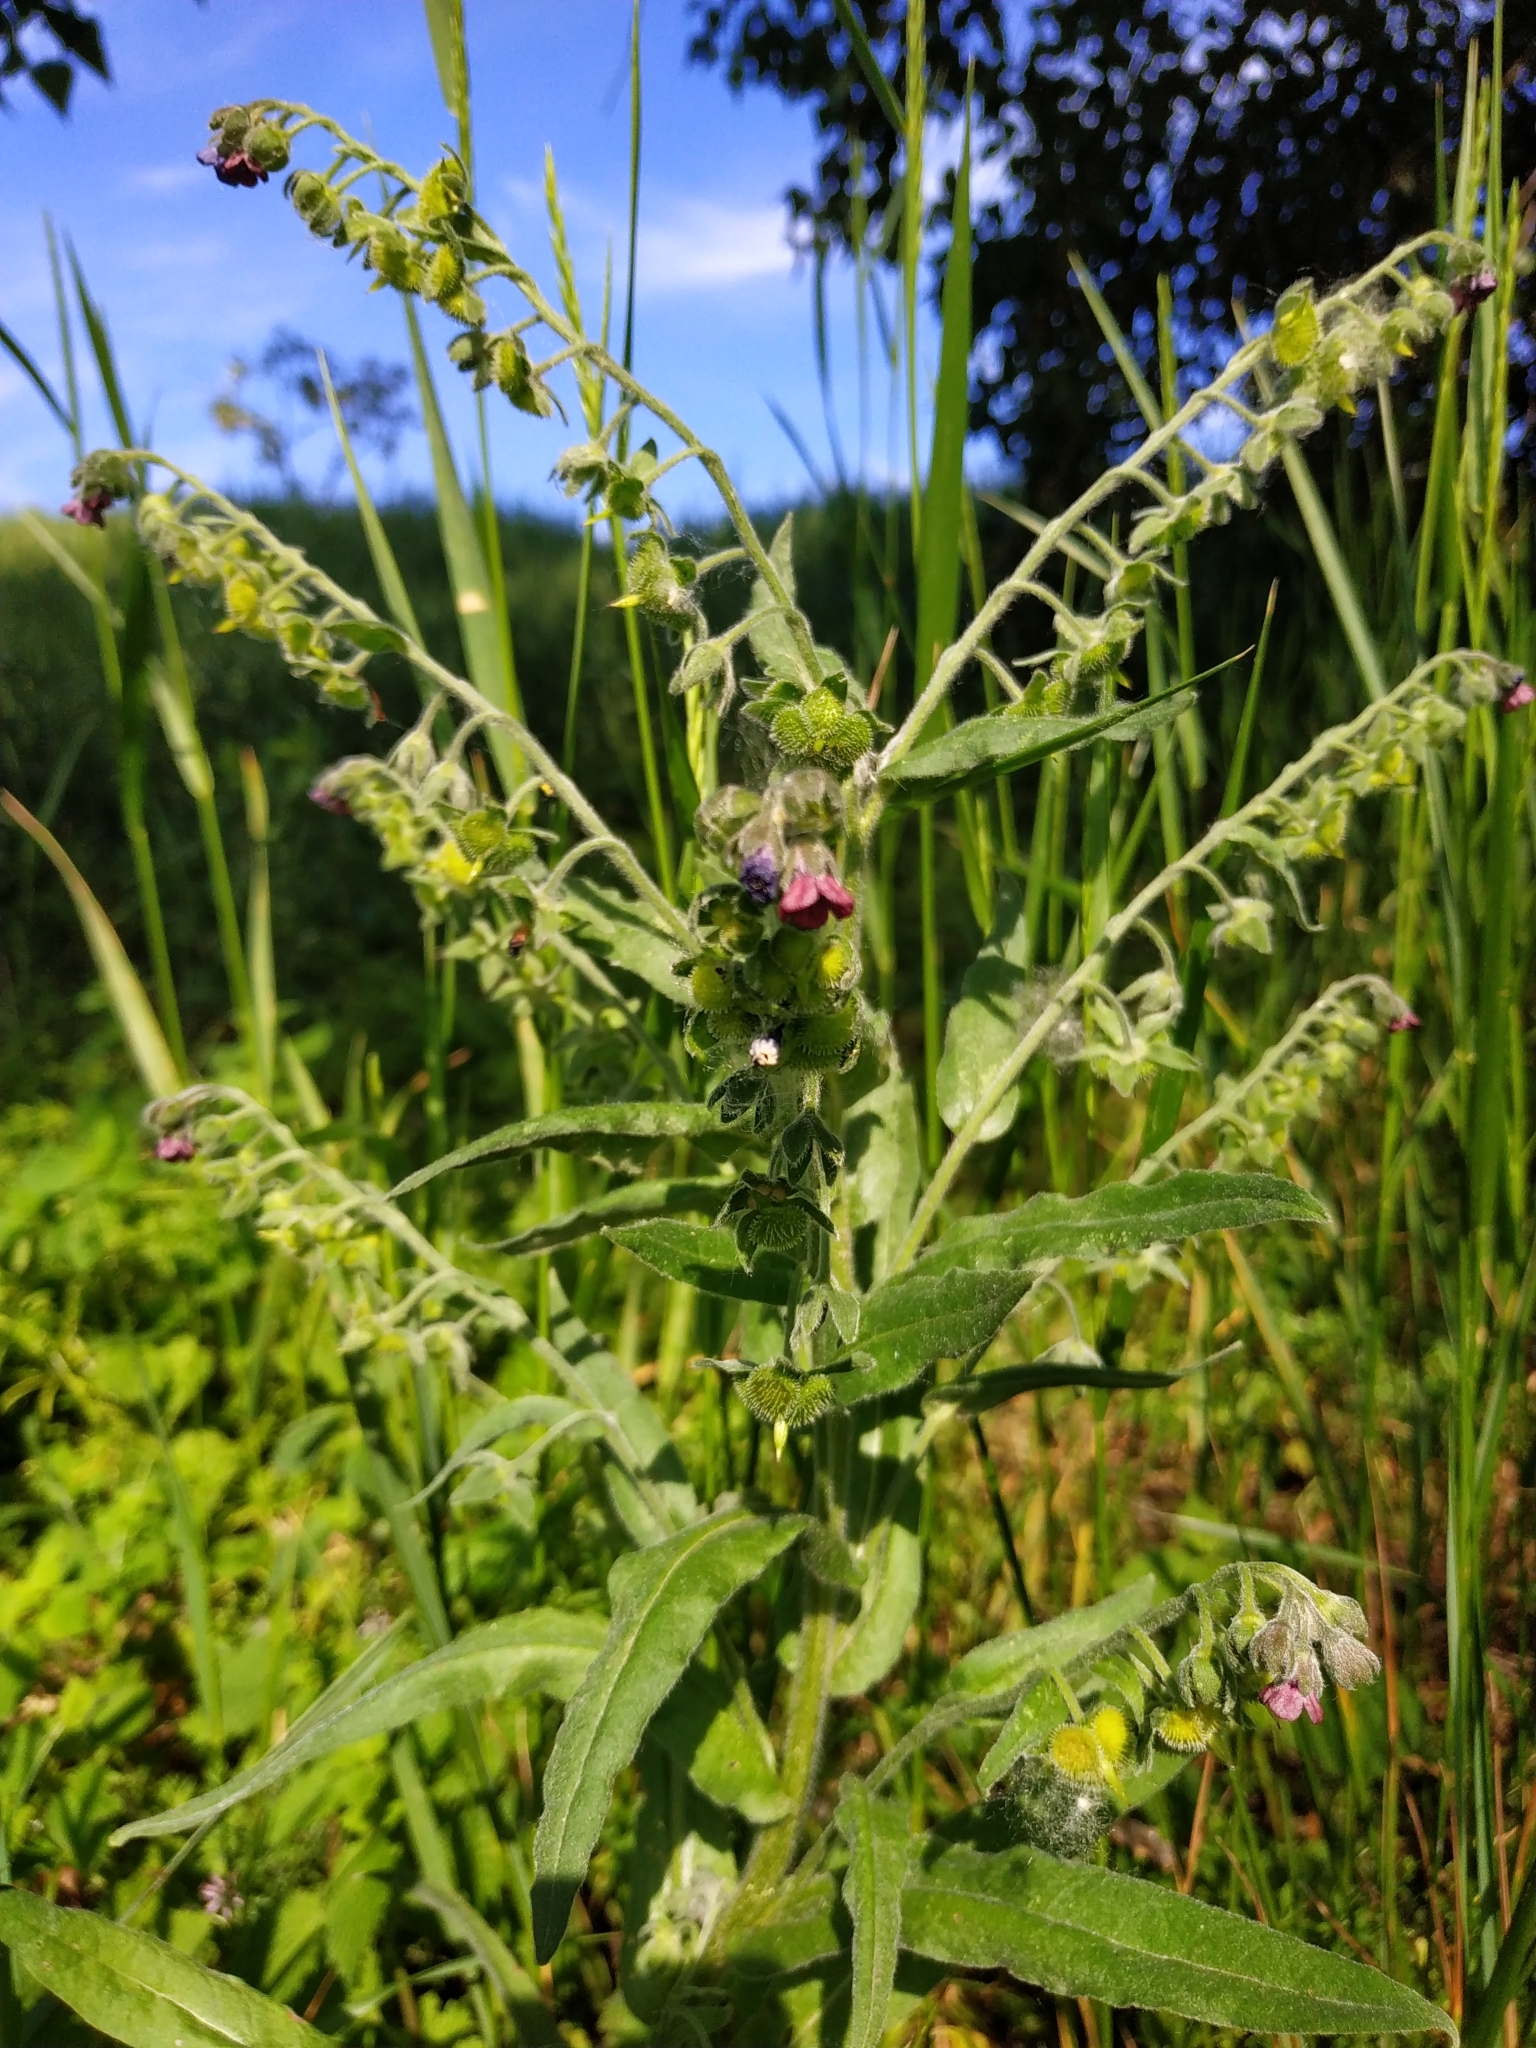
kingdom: Plantae
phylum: Tracheophyta
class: Magnoliopsida
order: Boraginales
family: Boraginaceae
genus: Cynoglossum
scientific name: Cynoglossum officinale
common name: Hound's-tongue
